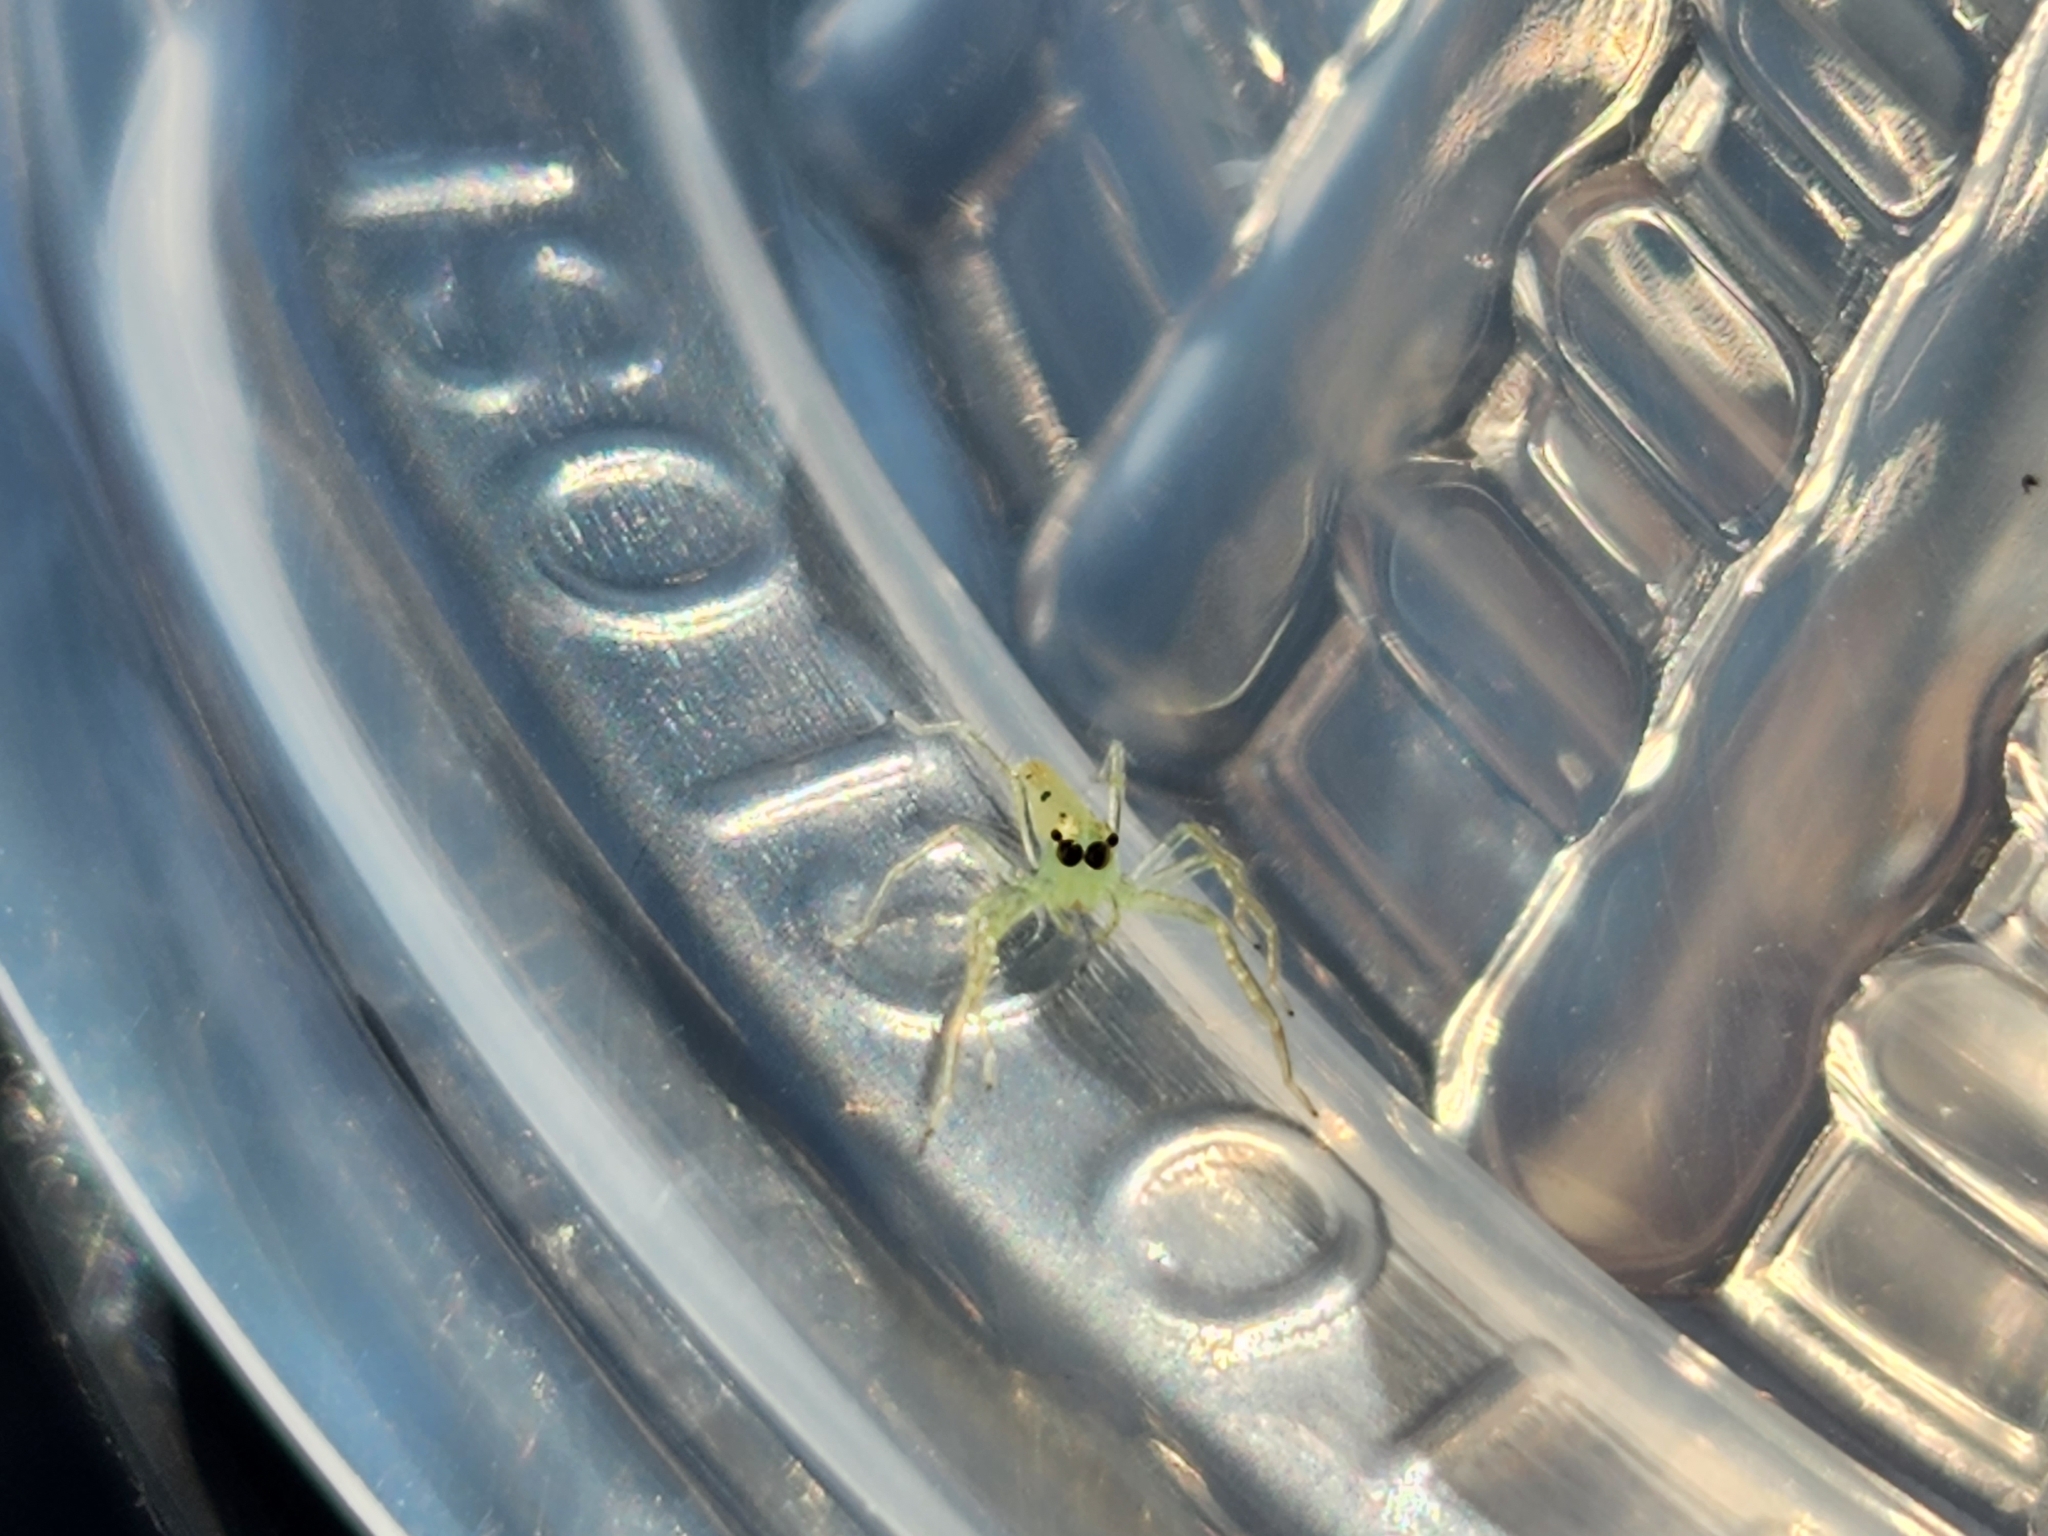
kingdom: Animalia
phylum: Arthropoda
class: Arachnida
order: Araneae
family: Salticidae
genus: Lyssomanes
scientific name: Lyssomanes viridis
